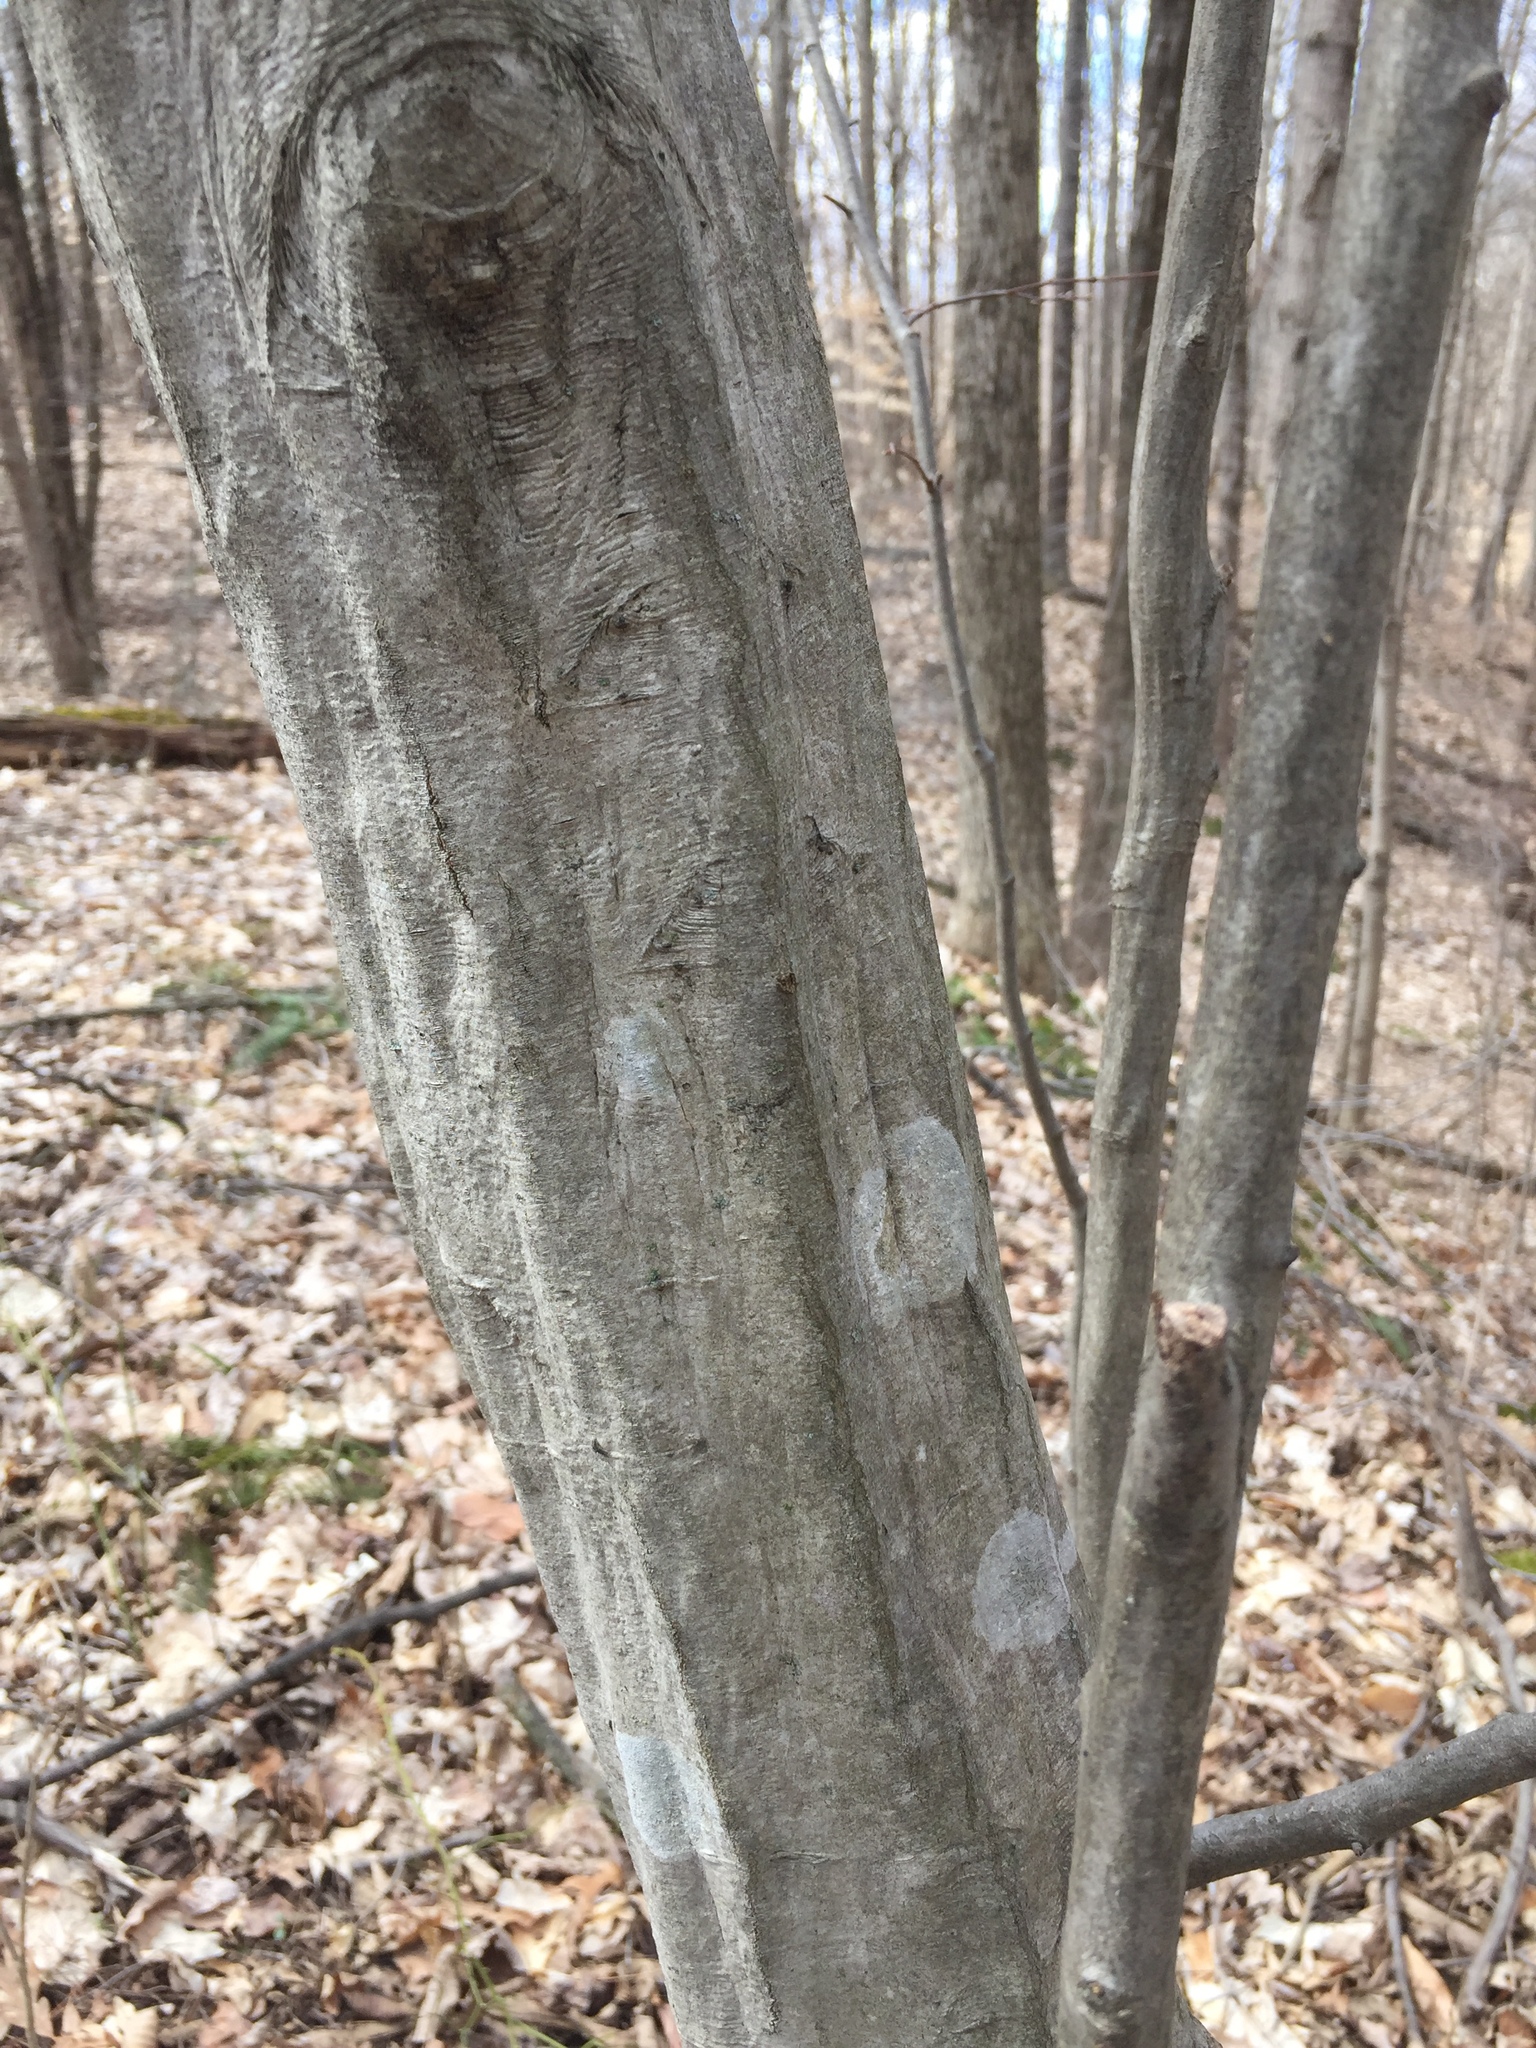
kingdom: Plantae
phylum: Tracheophyta
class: Magnoliopsida
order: Fagales
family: Betulaceae
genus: Carpinus
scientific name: Carpinus caroliniana
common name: American hornbeam
